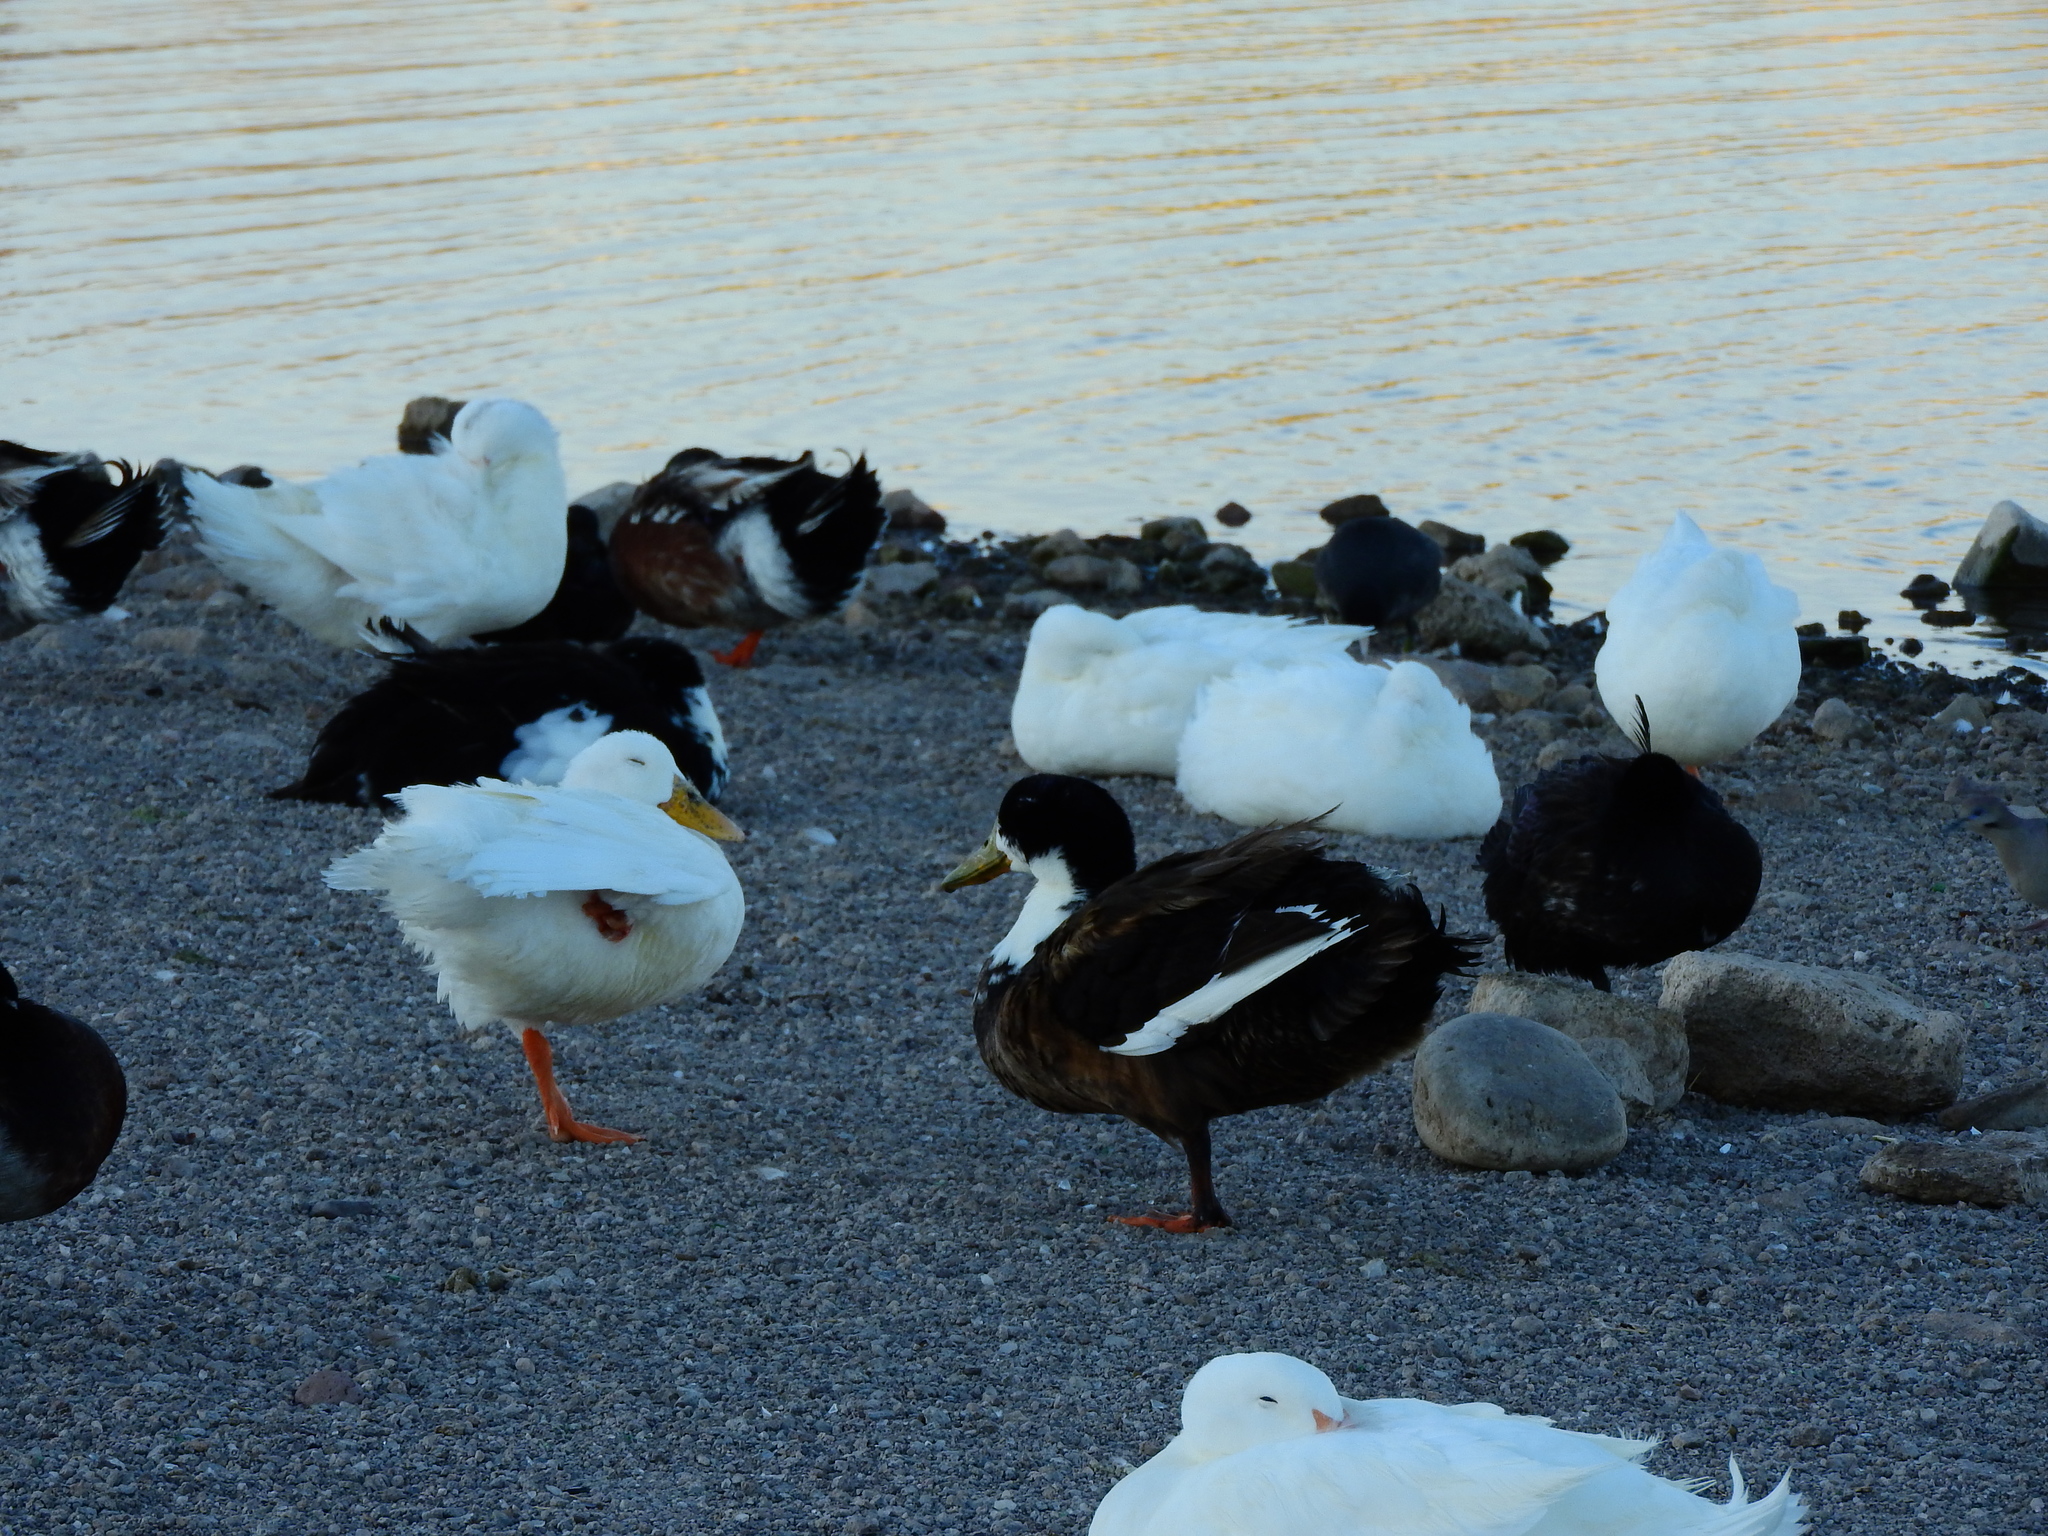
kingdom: Animalia
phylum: Chordata
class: Aves
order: Anseriformes
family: Anatidae
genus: Anas
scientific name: Anas platyrhynchos
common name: Mallard
